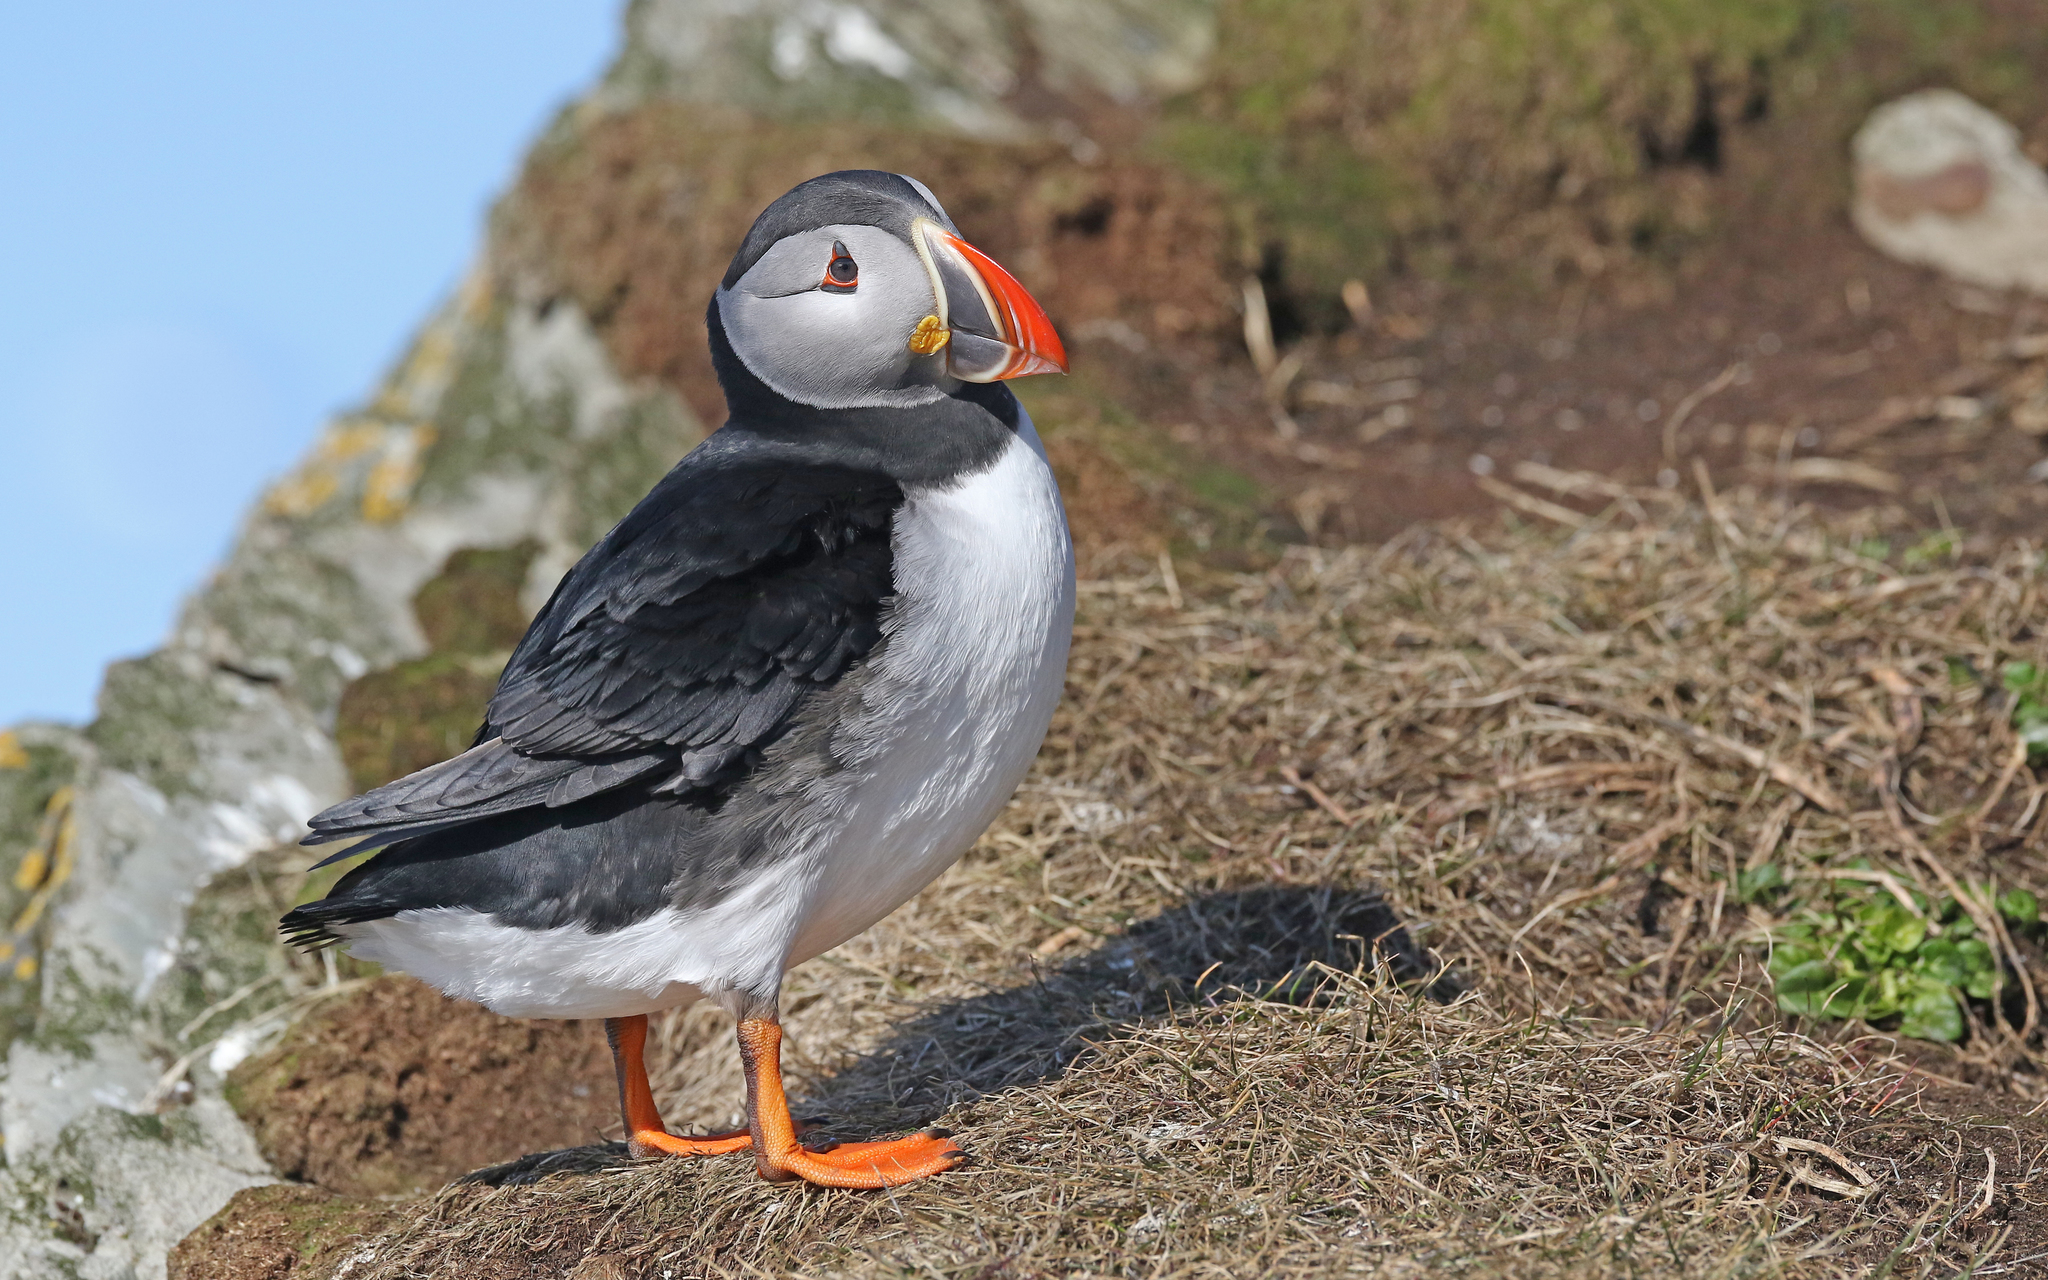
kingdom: Animalia
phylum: Chordata
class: Aves
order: Charadriiformes
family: Alcidae
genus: Fratercula
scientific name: Fratercula arctica
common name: Atlantic puffin
